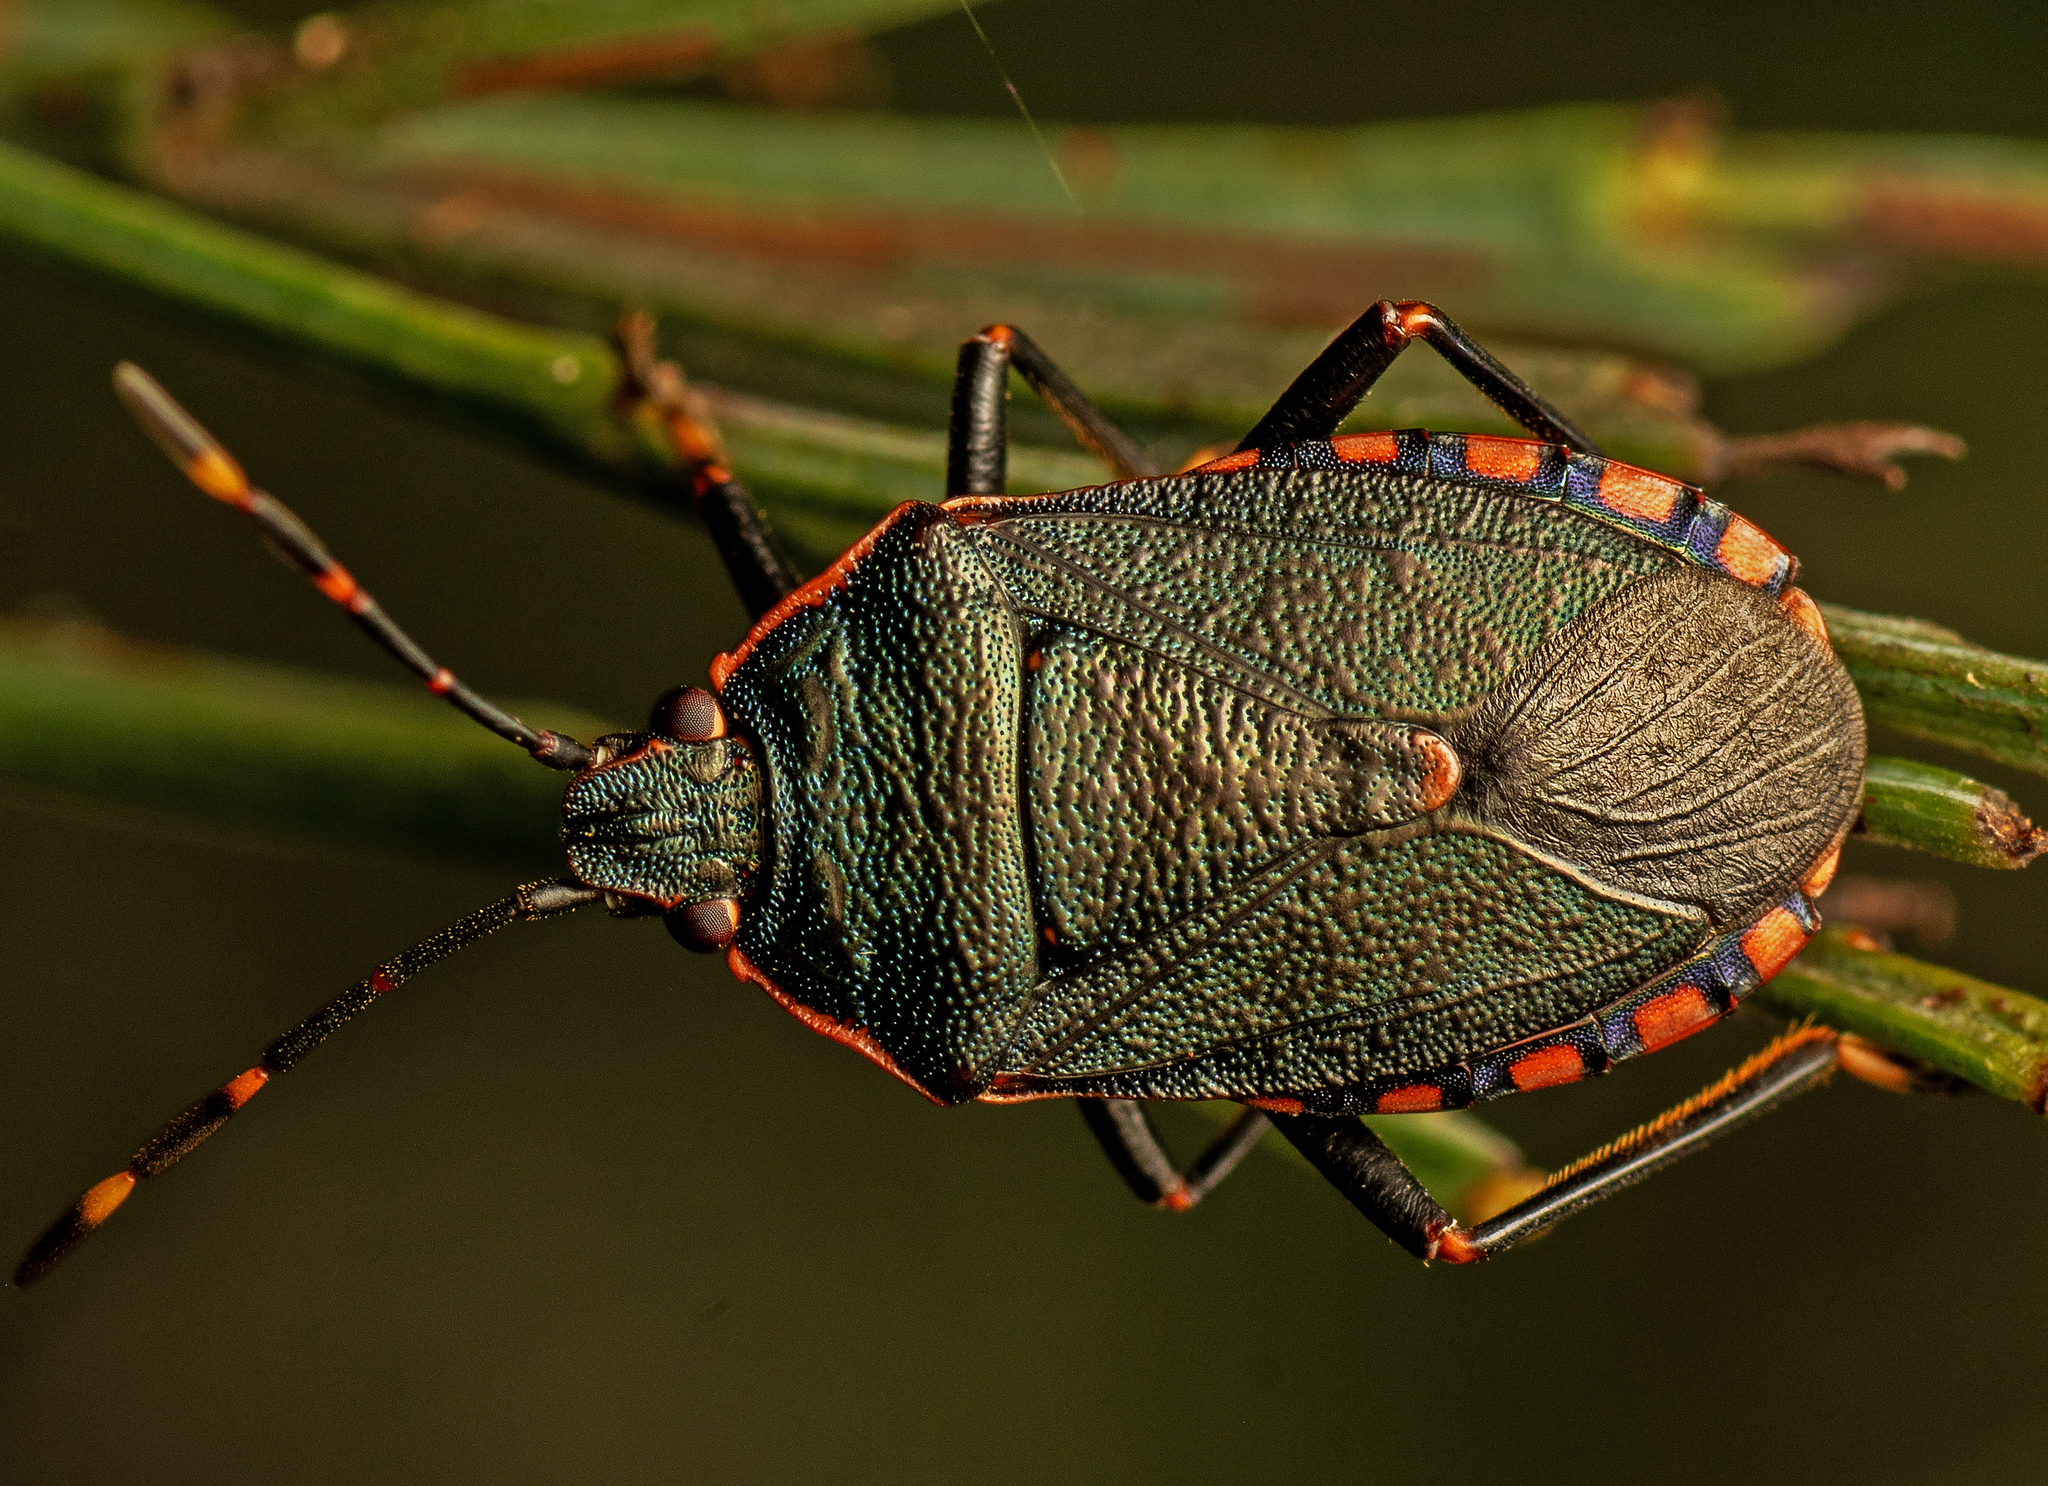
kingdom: Animalia
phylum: Arthropoda
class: Insecta
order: Hemiptera
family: Pentatomidae
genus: Notius
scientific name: Notius
